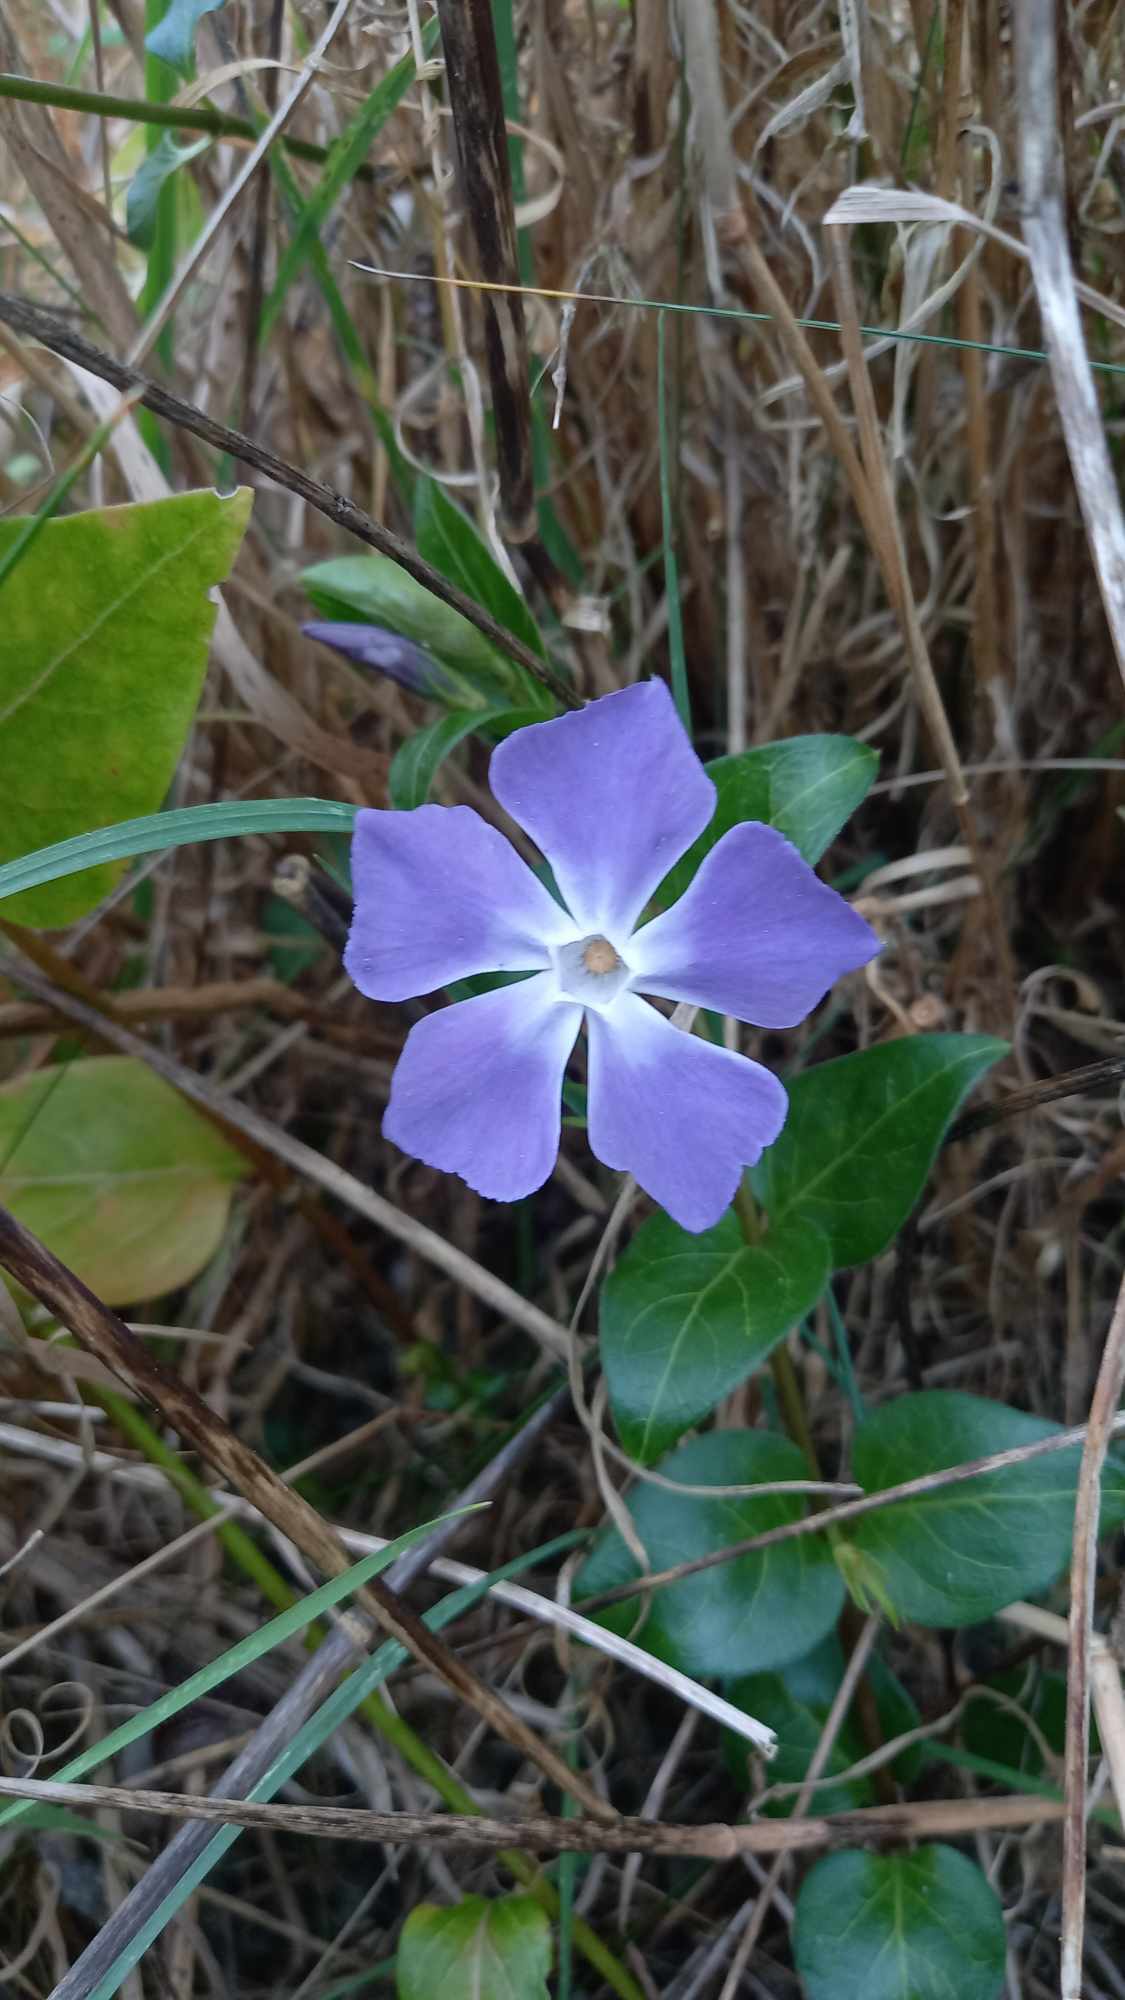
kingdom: Plantae
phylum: Tracheophyta
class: Magnoliopsida
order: Gentianales
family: Apocynaceae
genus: Vinca
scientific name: Vinca major
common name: Greater periwinkle
